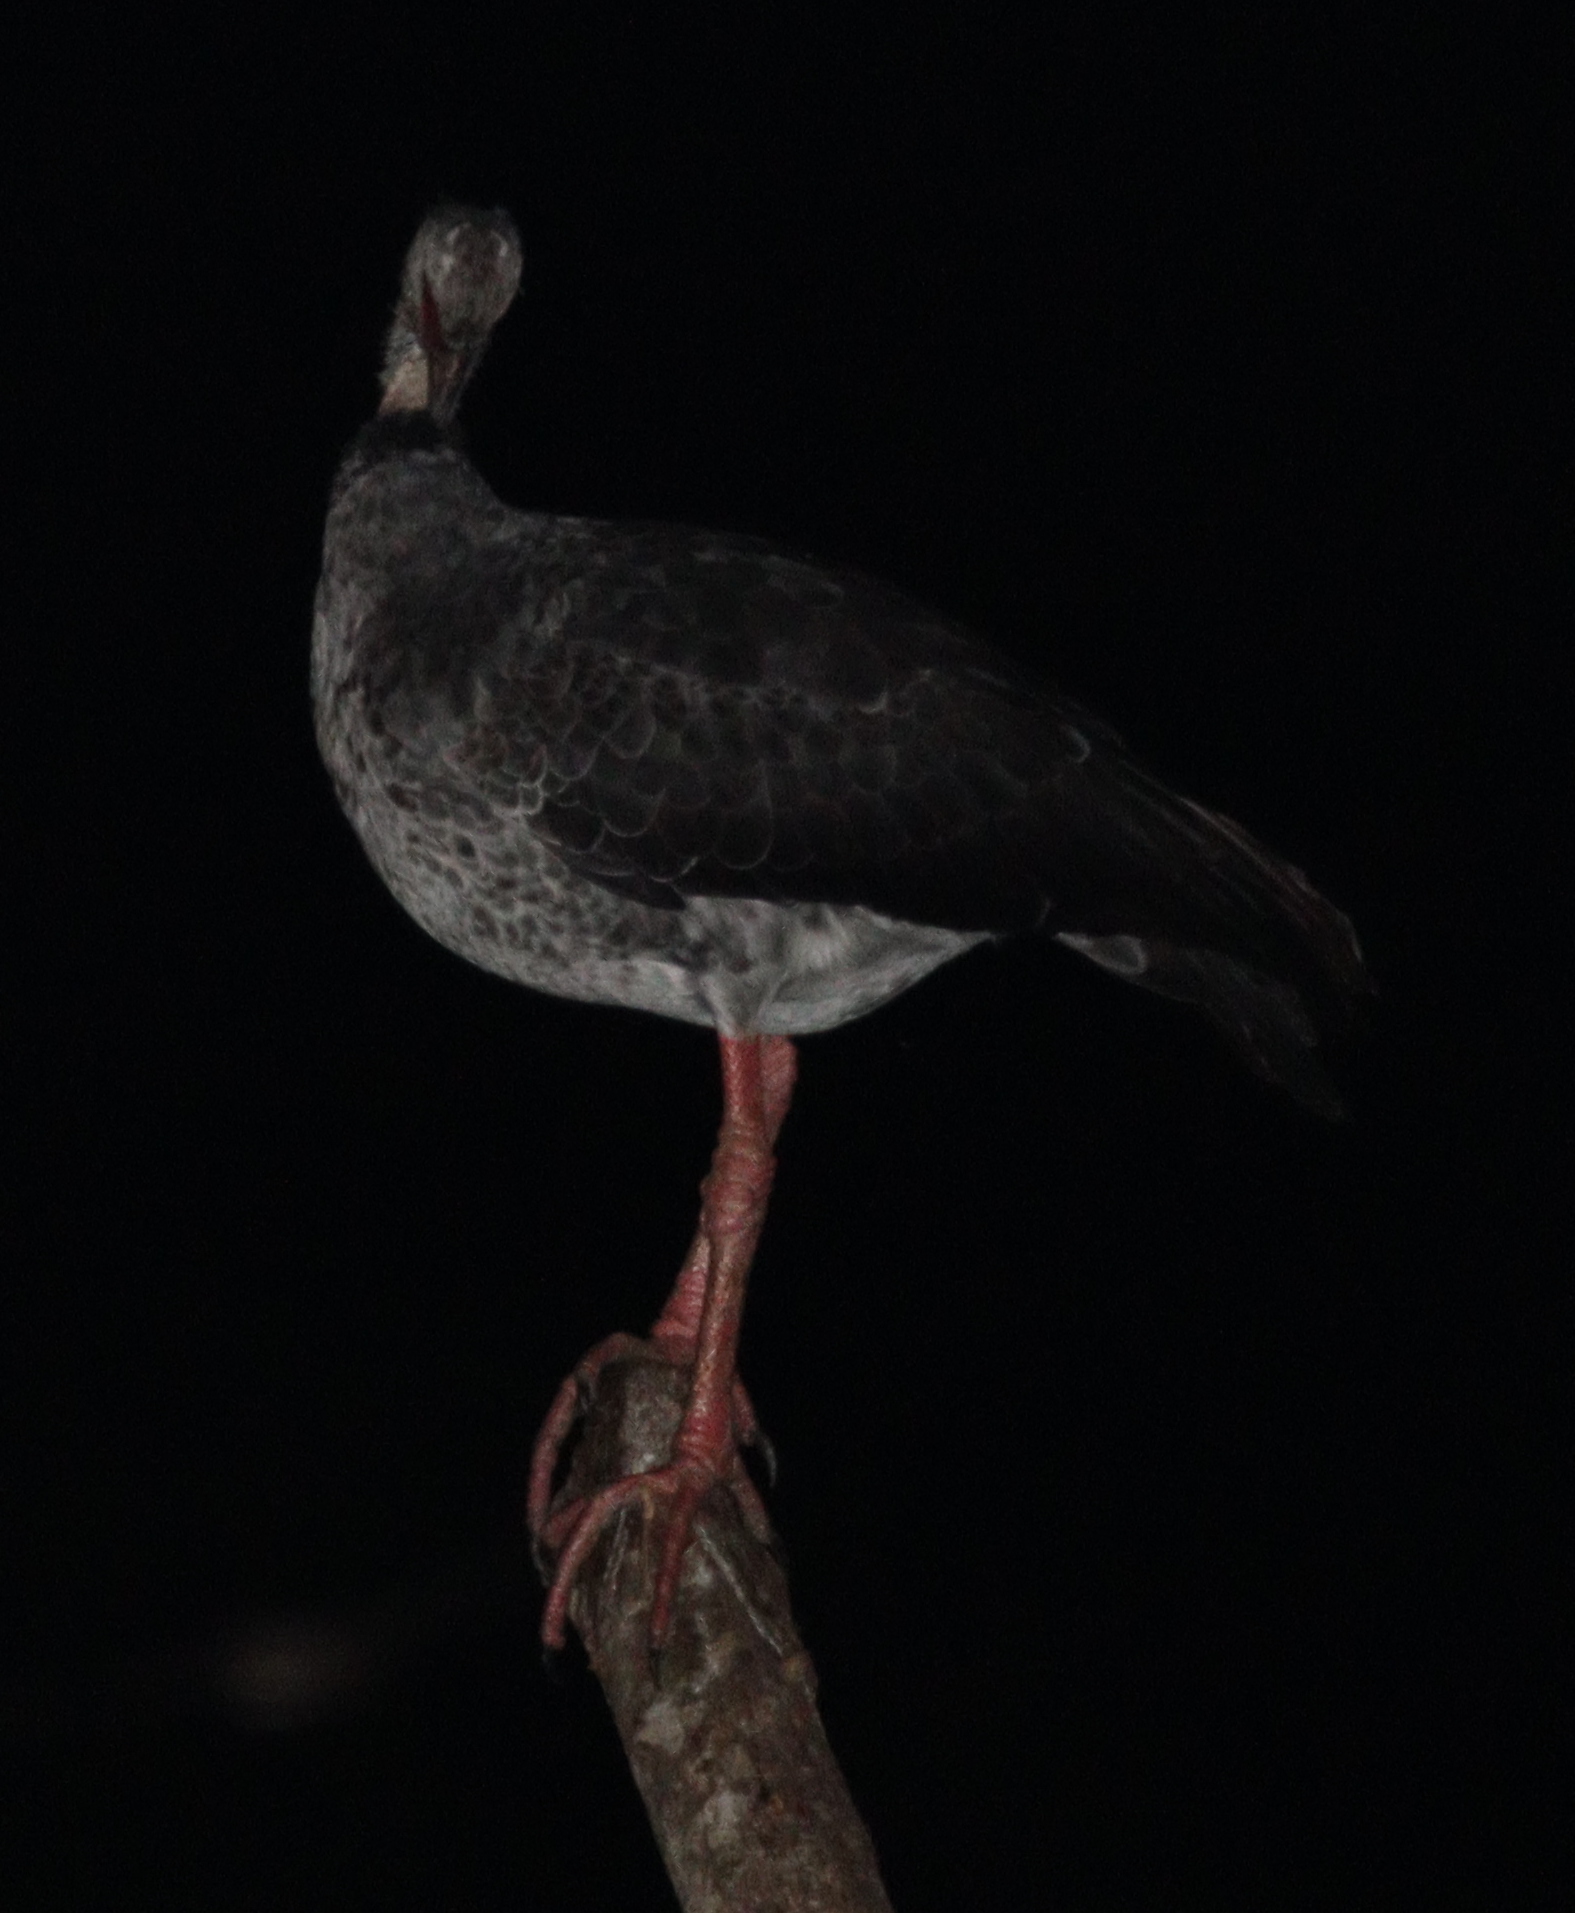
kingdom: Animalia
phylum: Chordata
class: Aves
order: Anseriformes
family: Anhimidae
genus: Chauna
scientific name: Chauna torquata
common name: Southern screamer
